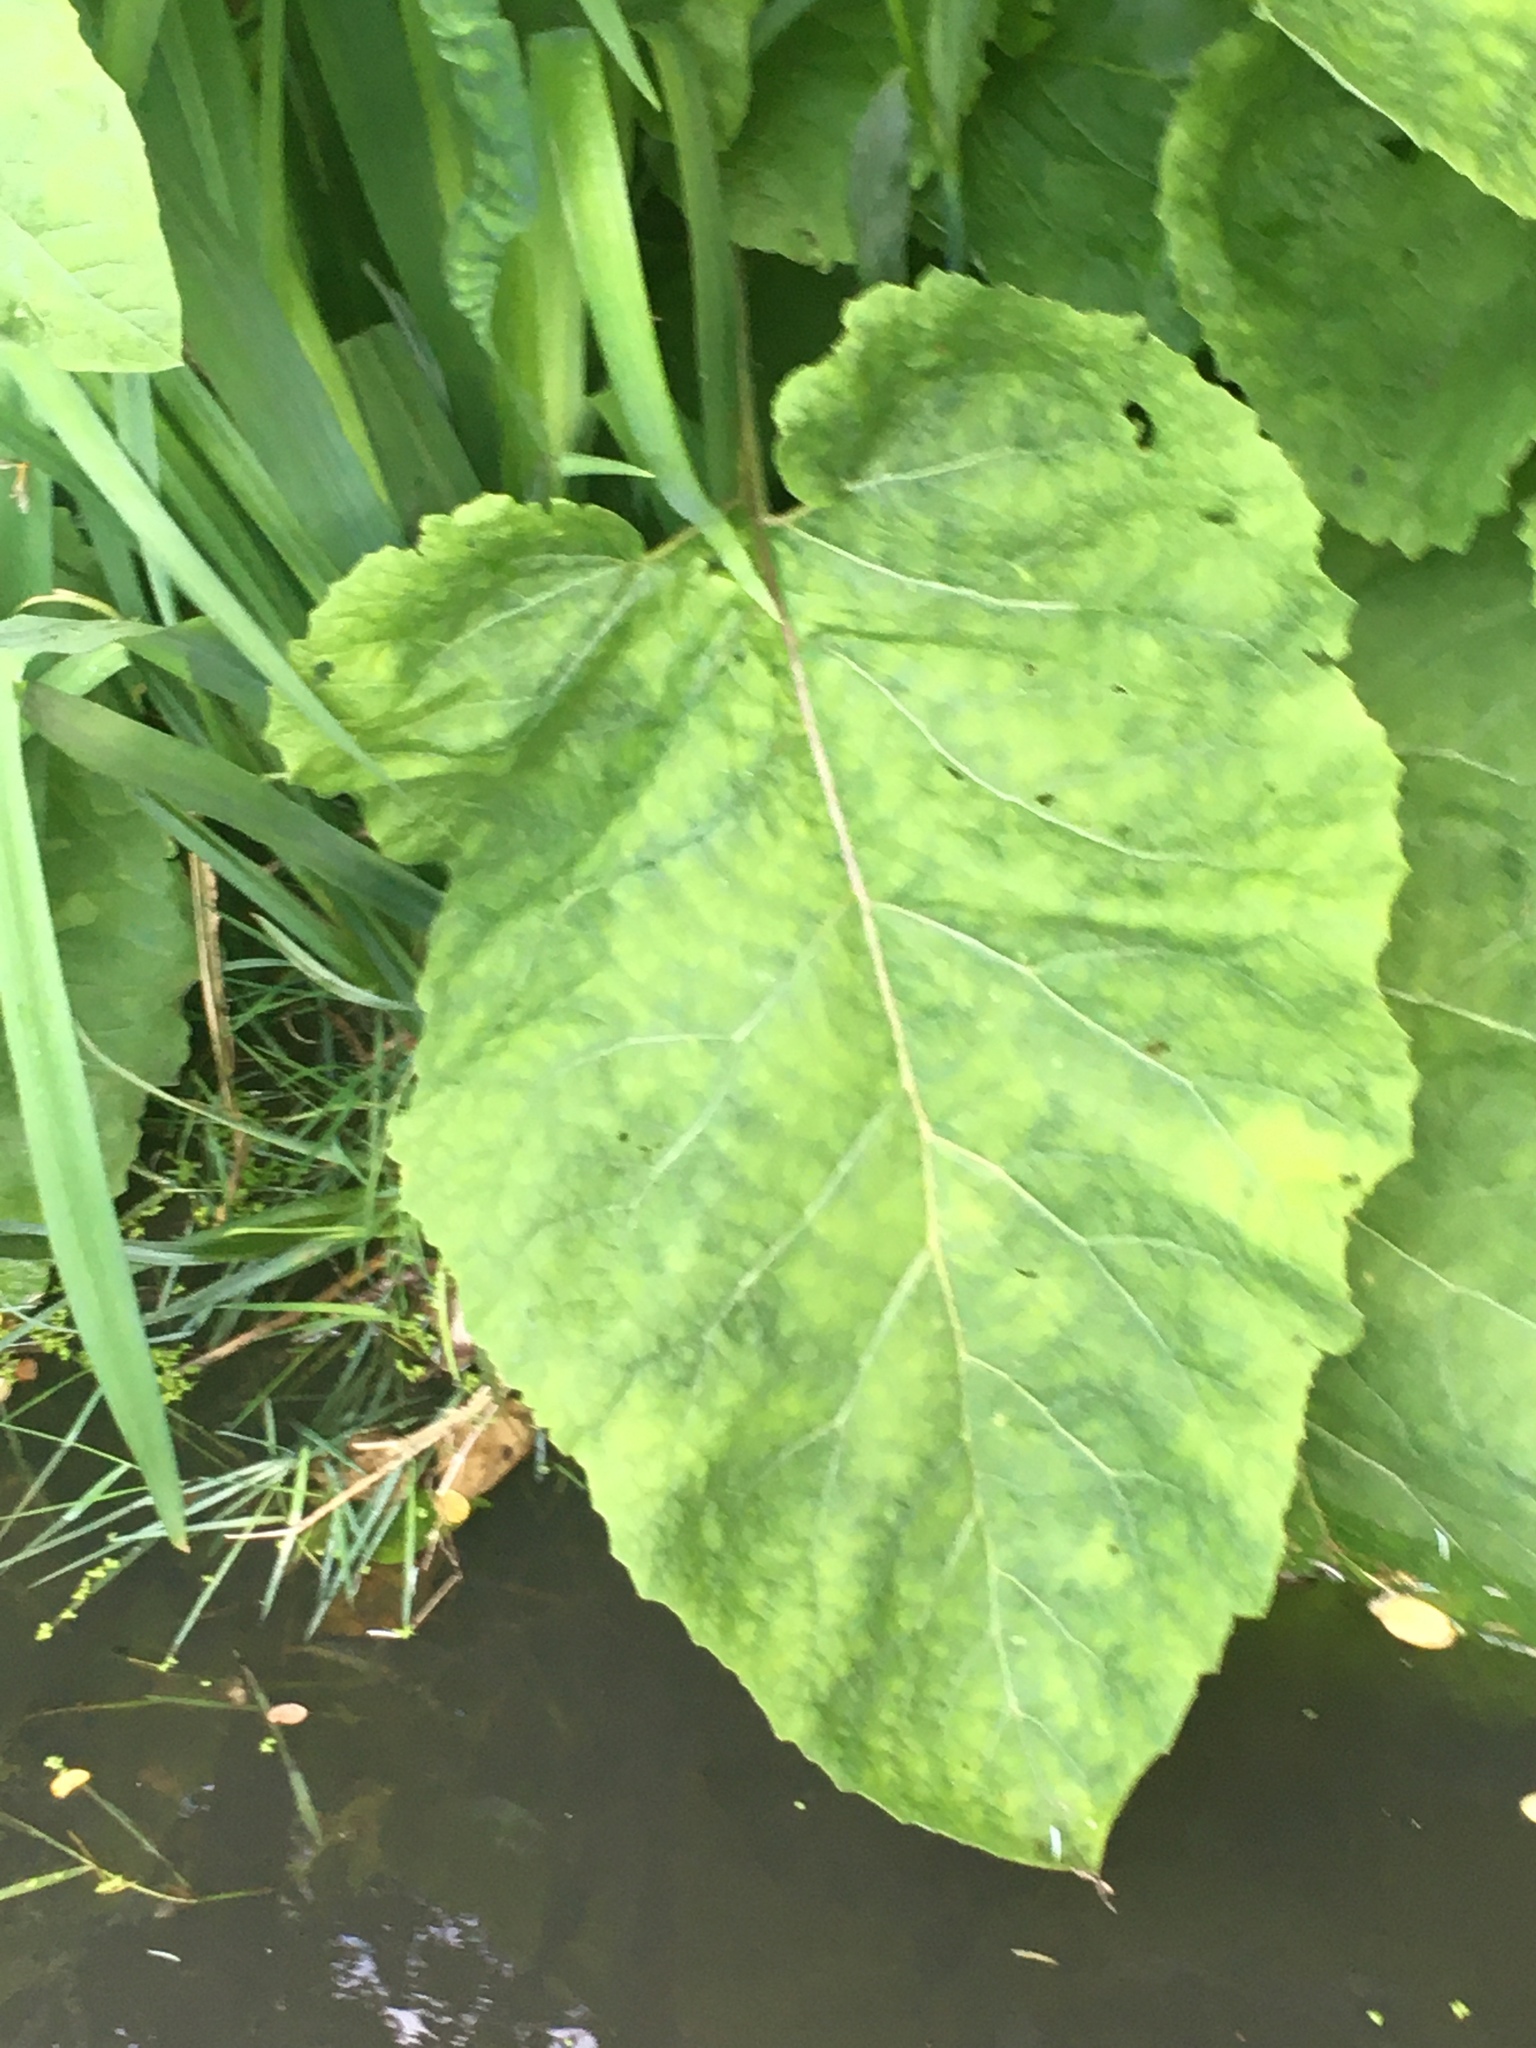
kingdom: Plantae
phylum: Tracheophyta
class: Magnoliopsida
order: Asterales
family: Asteraceae
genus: Arctium
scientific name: Arctium
